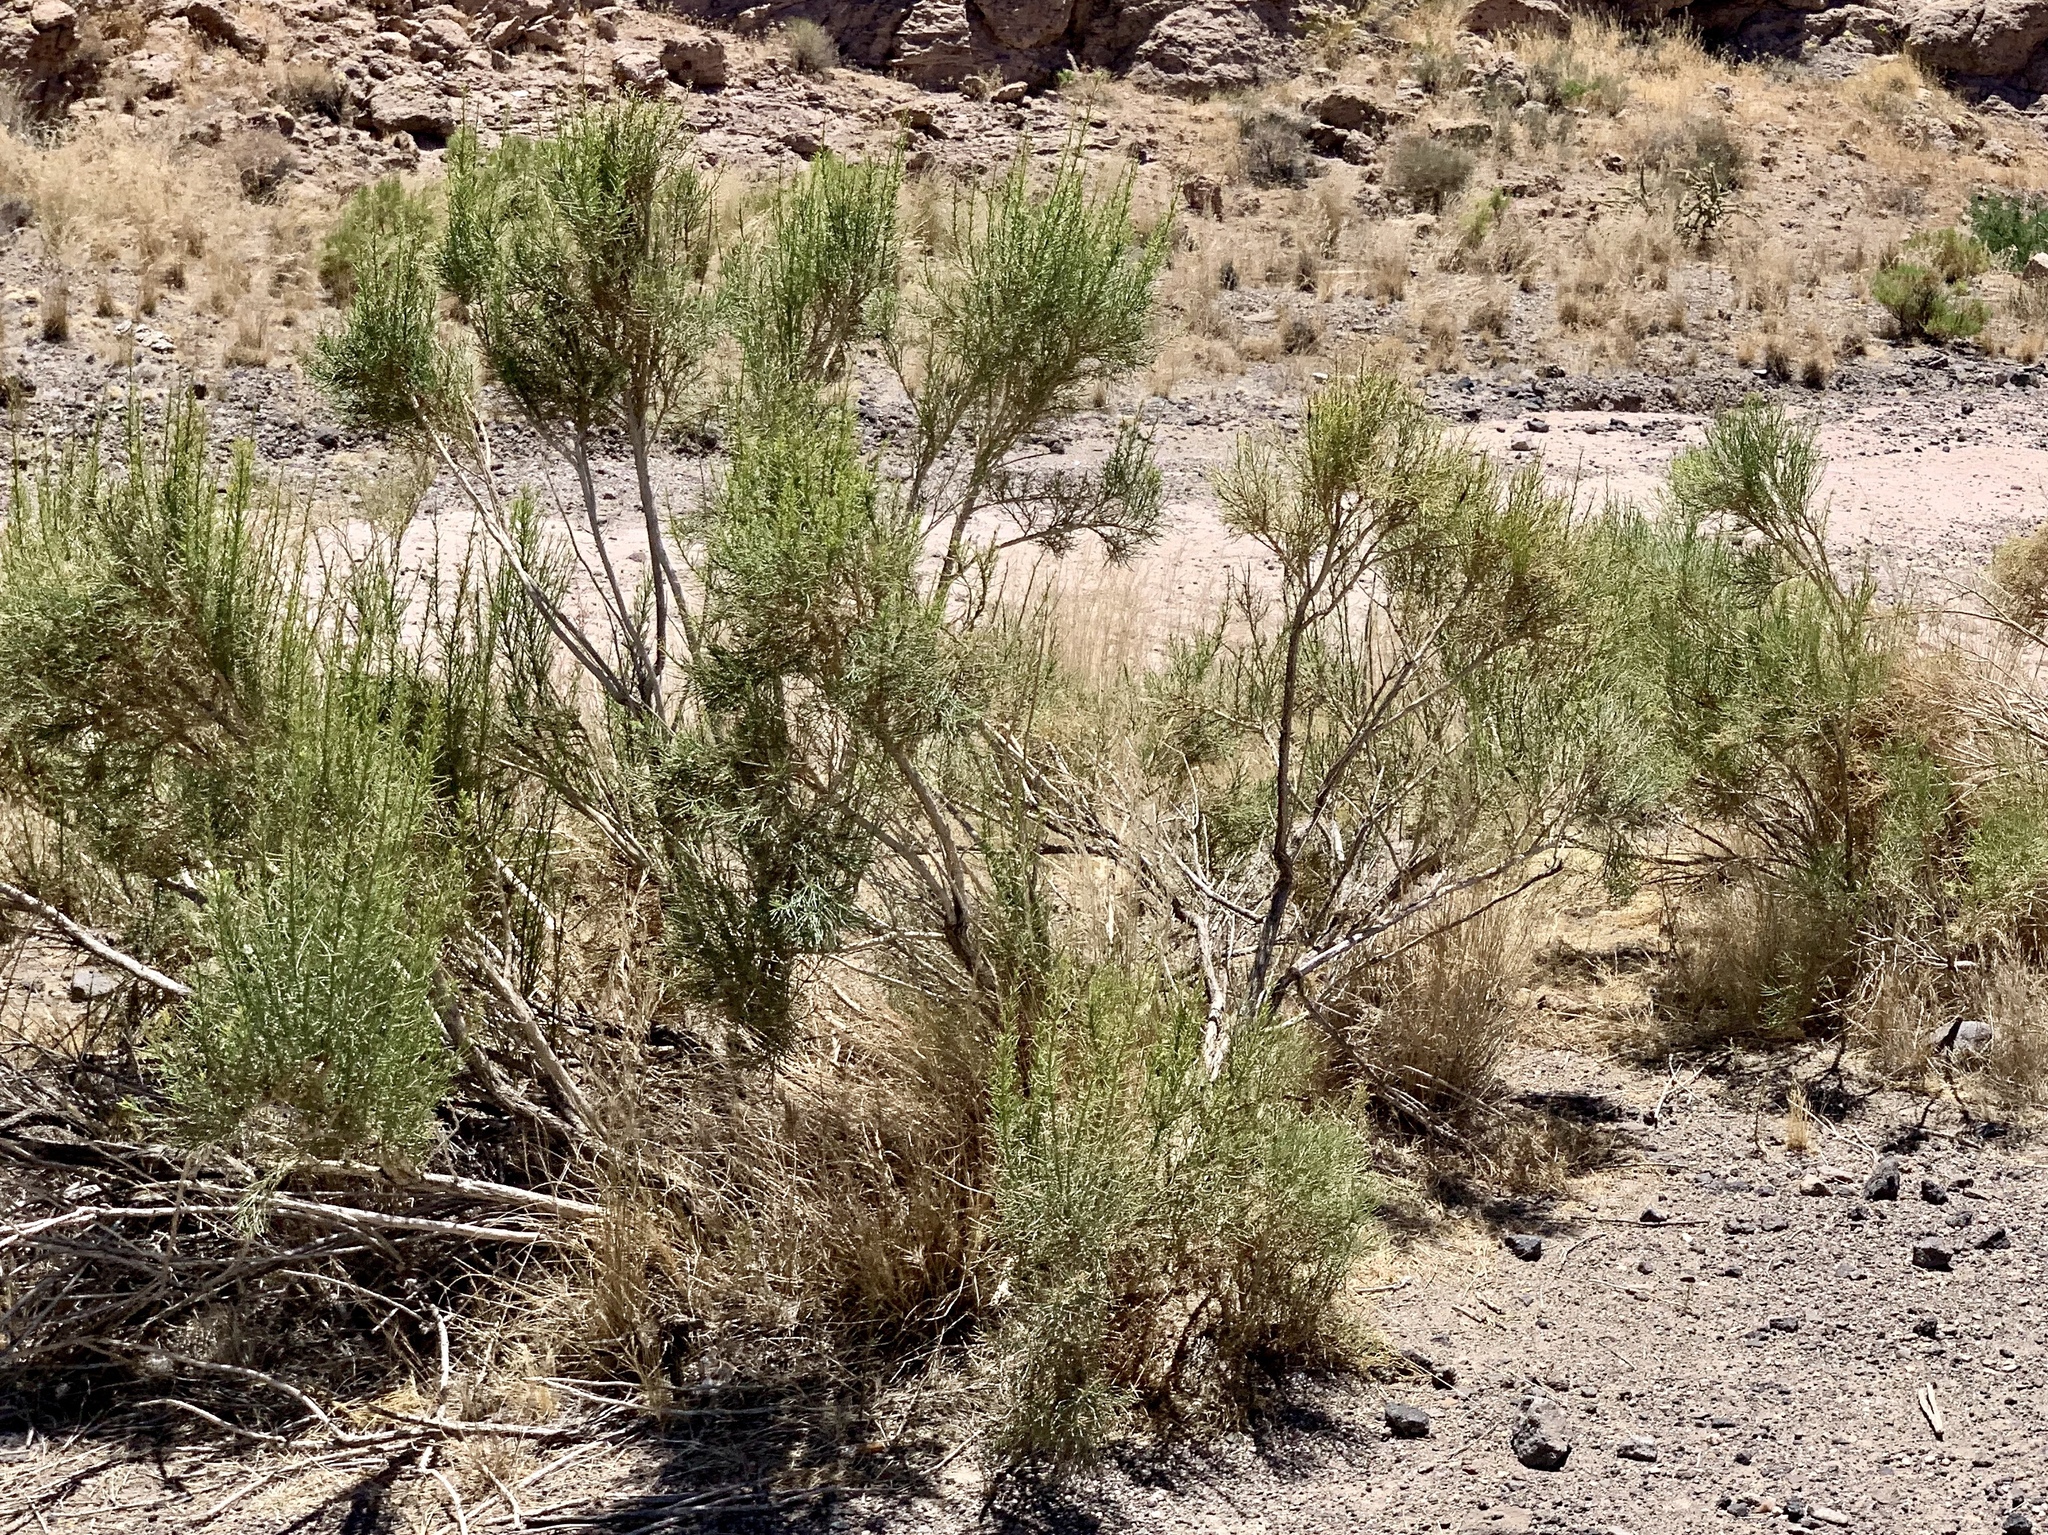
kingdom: Plantae
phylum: Tracheophyta
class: Magnoliopsida
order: Asterales
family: Asteraceae
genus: Baccharis
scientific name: Baccharis sarothroides
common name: Desert-broom
